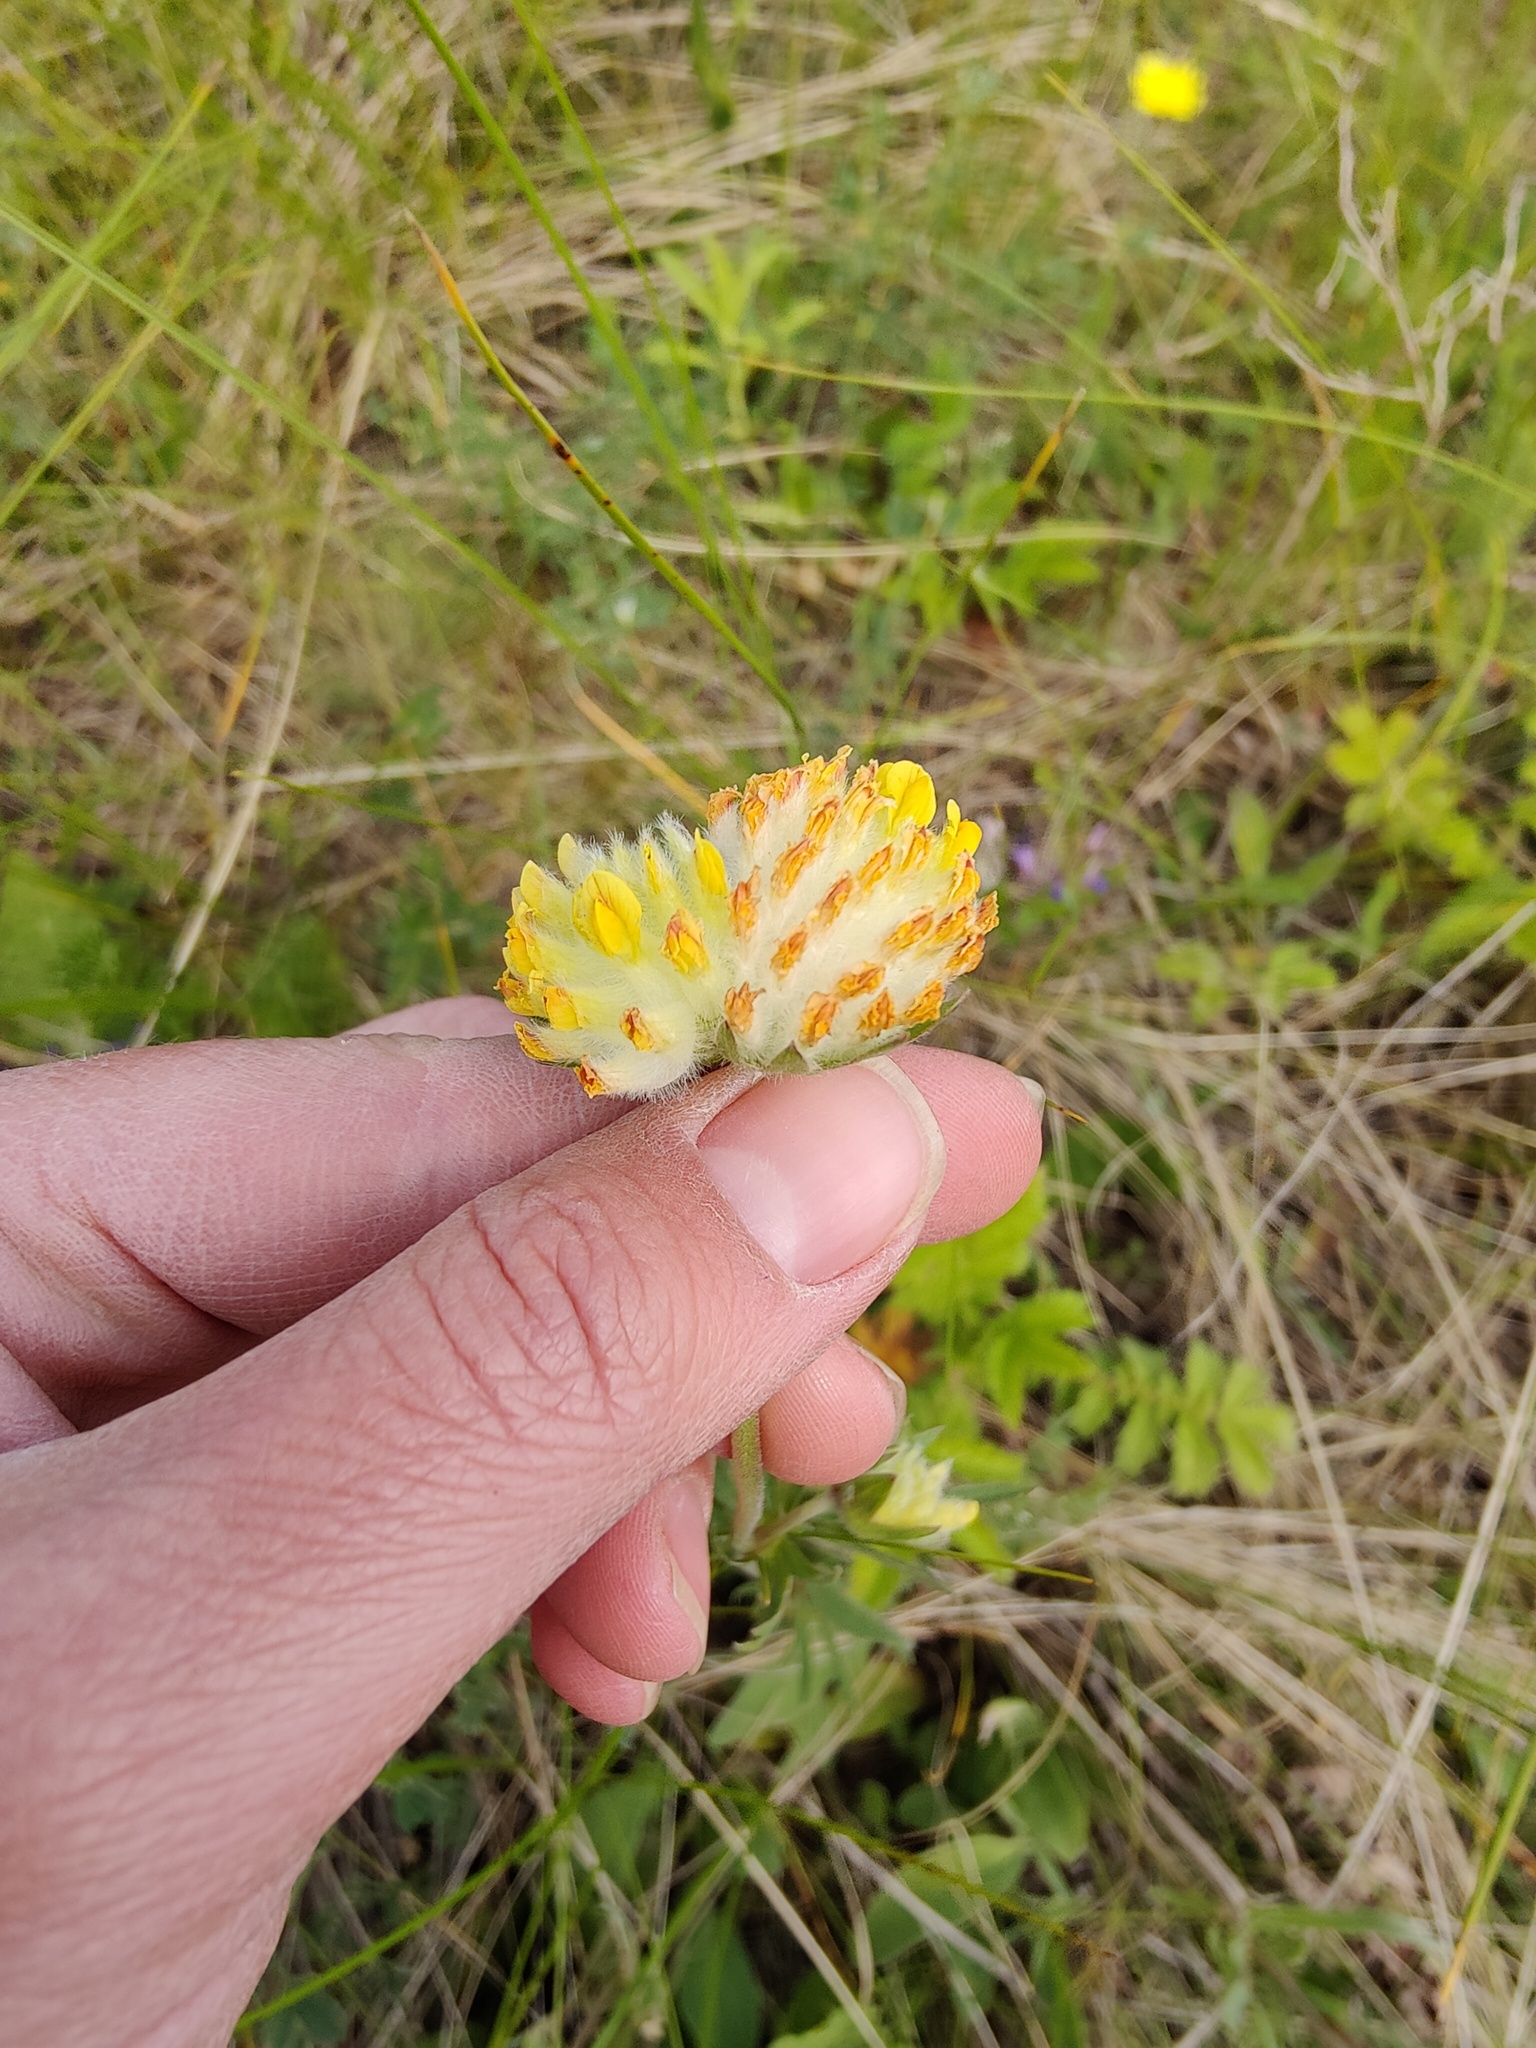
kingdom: Plantae
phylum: Tracheophyta
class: Magnoliopsida
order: Fabales
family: Fabaceae
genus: Anthyllis
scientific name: Anthyllis vulneraria
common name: Kidney vetch
